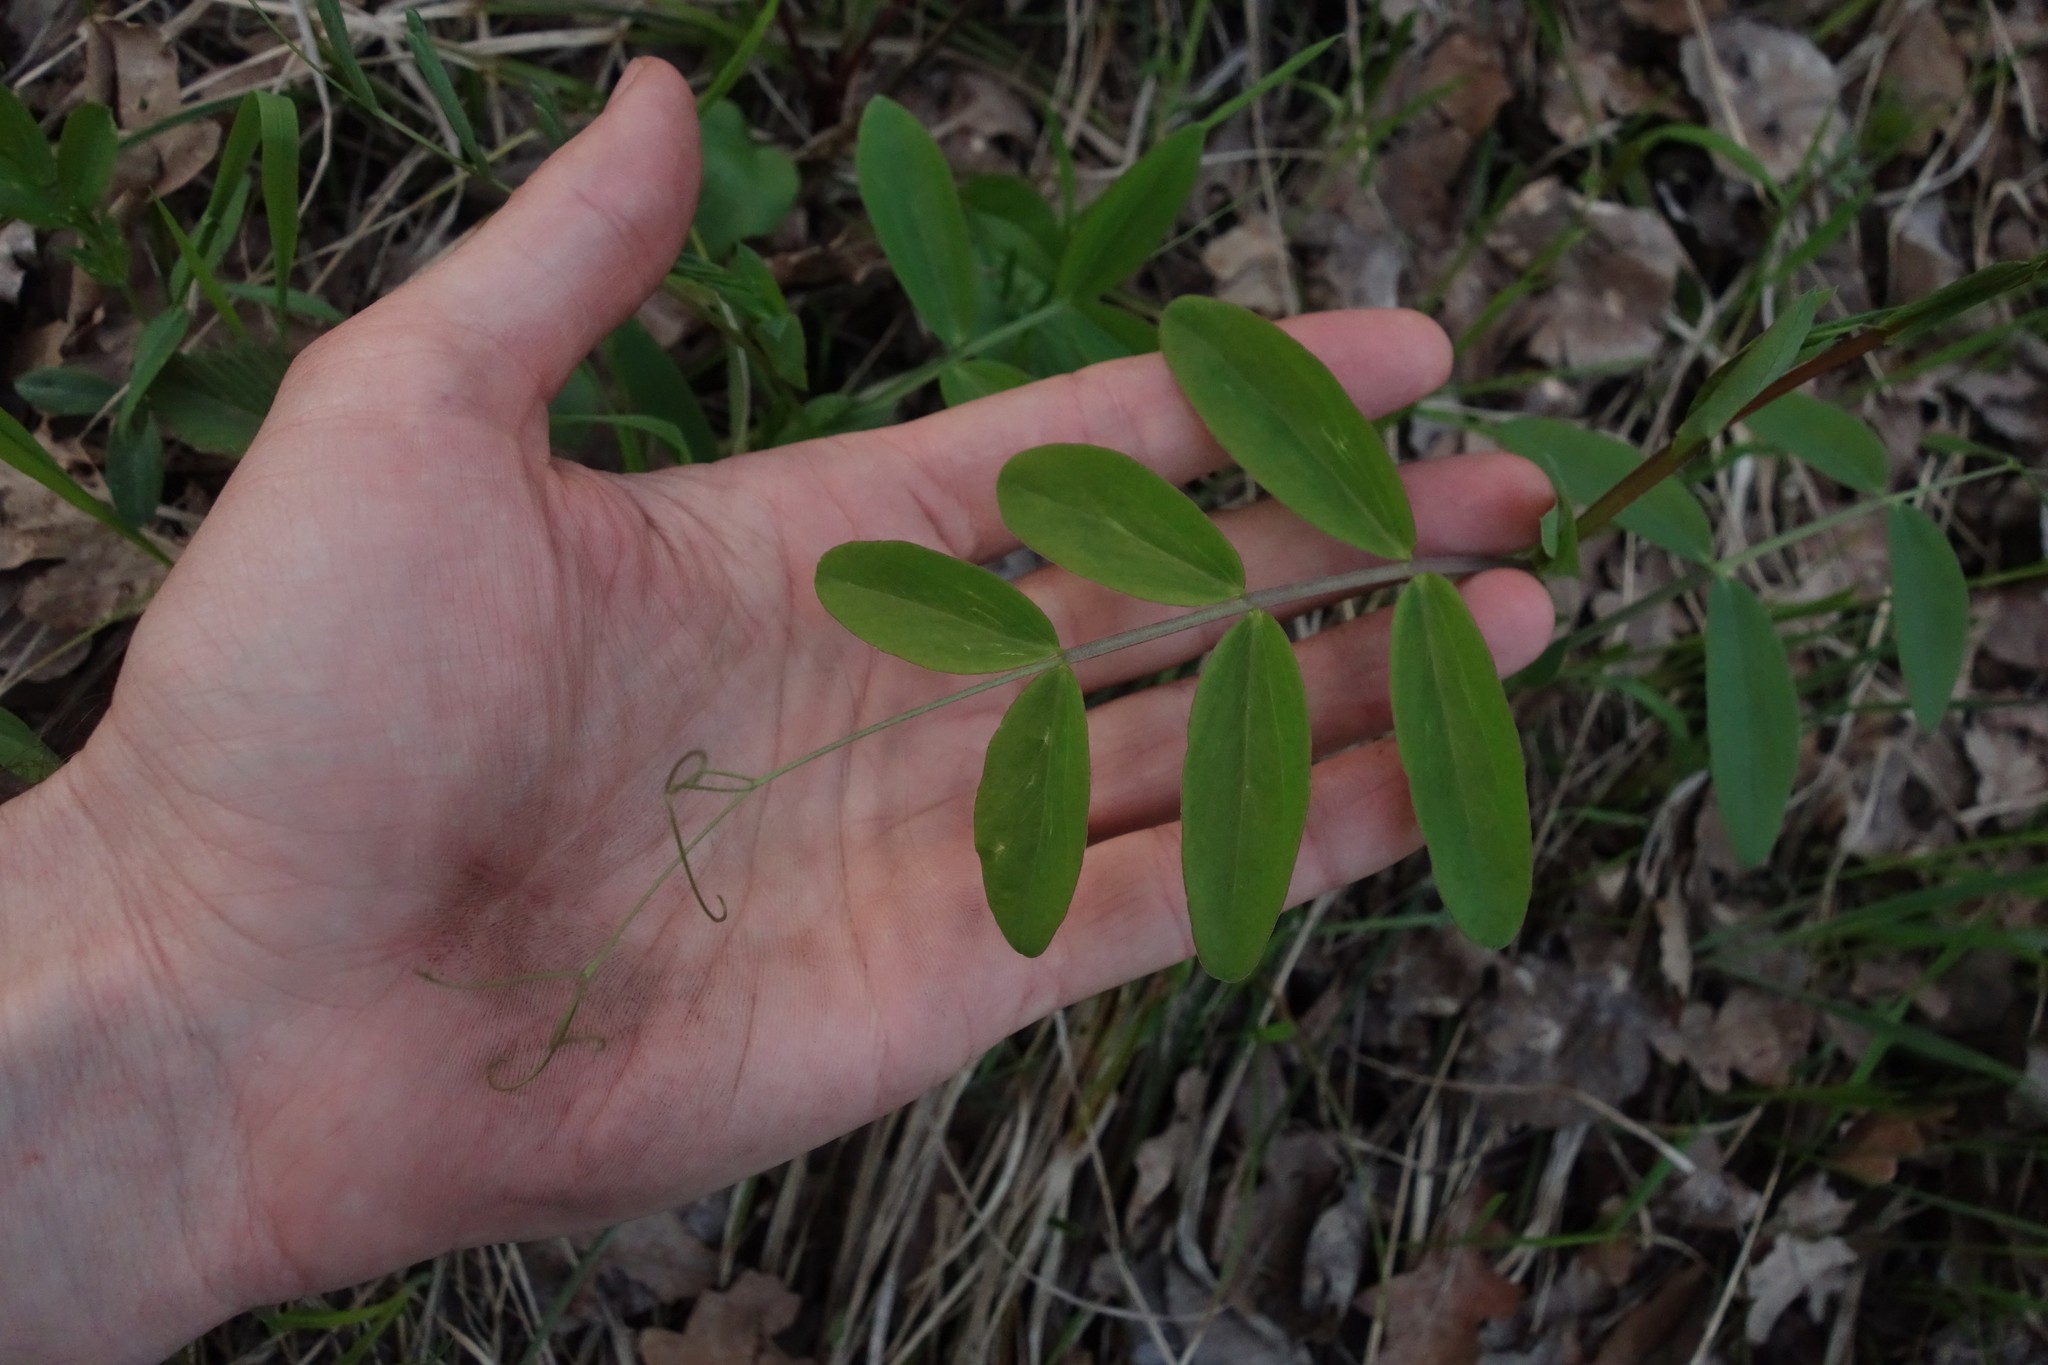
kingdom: Plantae
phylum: Tracheophyta
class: Magnoliopsida
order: Fabales
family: Fabaceae
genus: Lathyrus
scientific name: Lathyrus pisiformis
